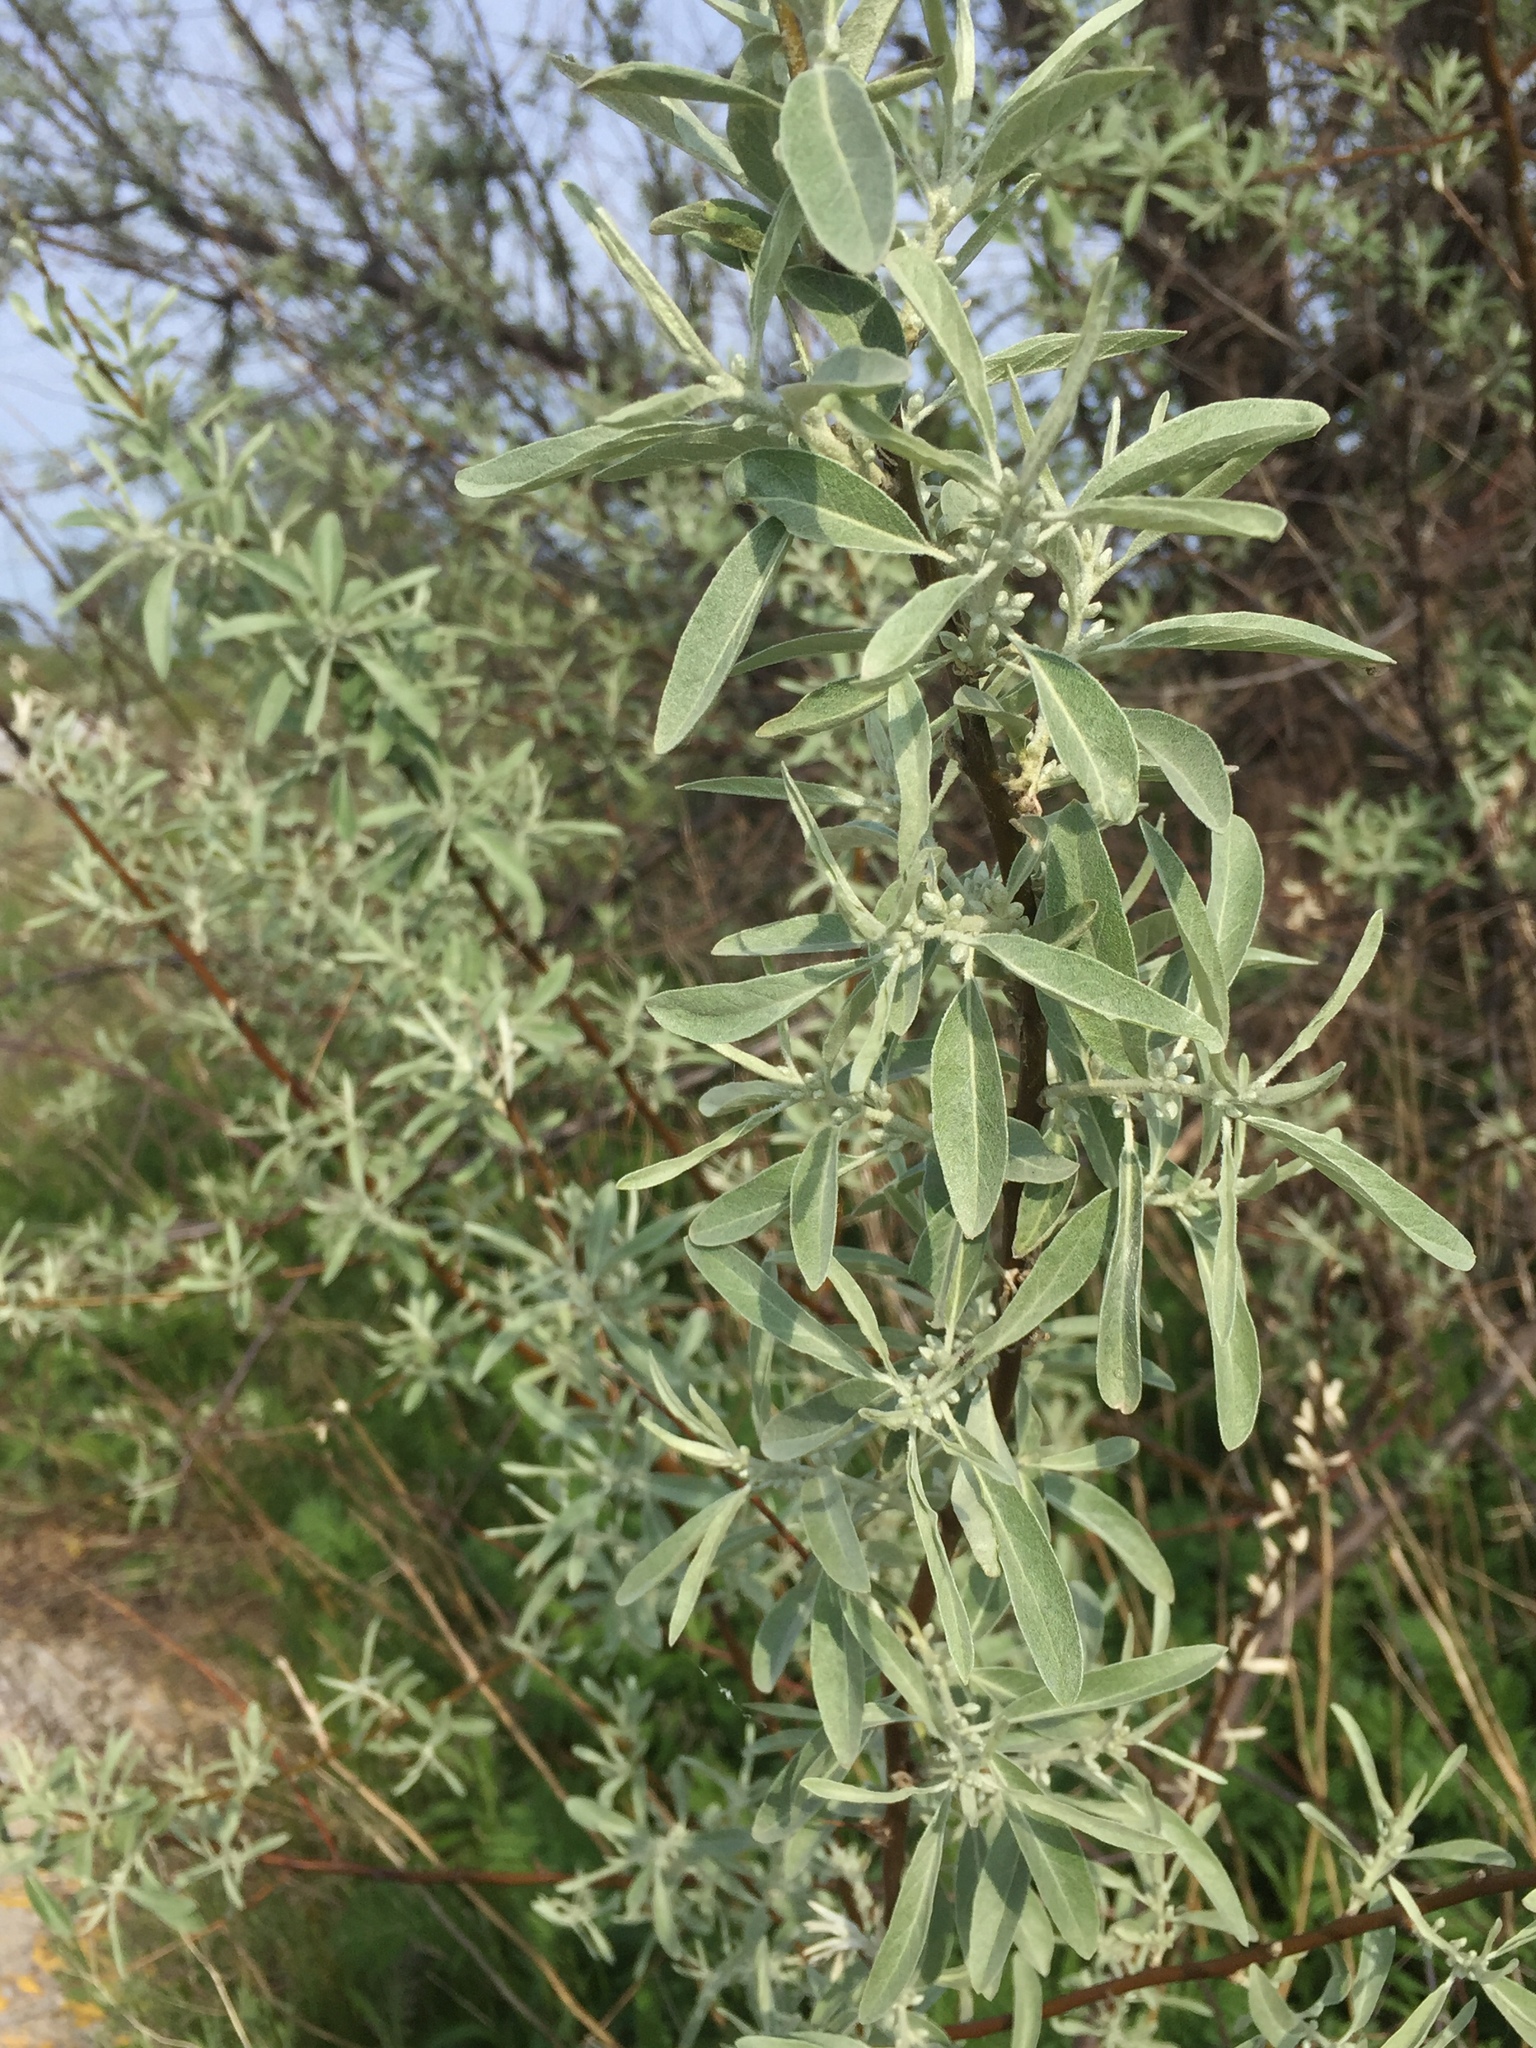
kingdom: Plantae
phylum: Tracheophyta
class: Magnoliopsida
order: Rosales
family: Elaeagnaceae
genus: Elaeagnus
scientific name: Elaeagnus angustifolia
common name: Russian olive
